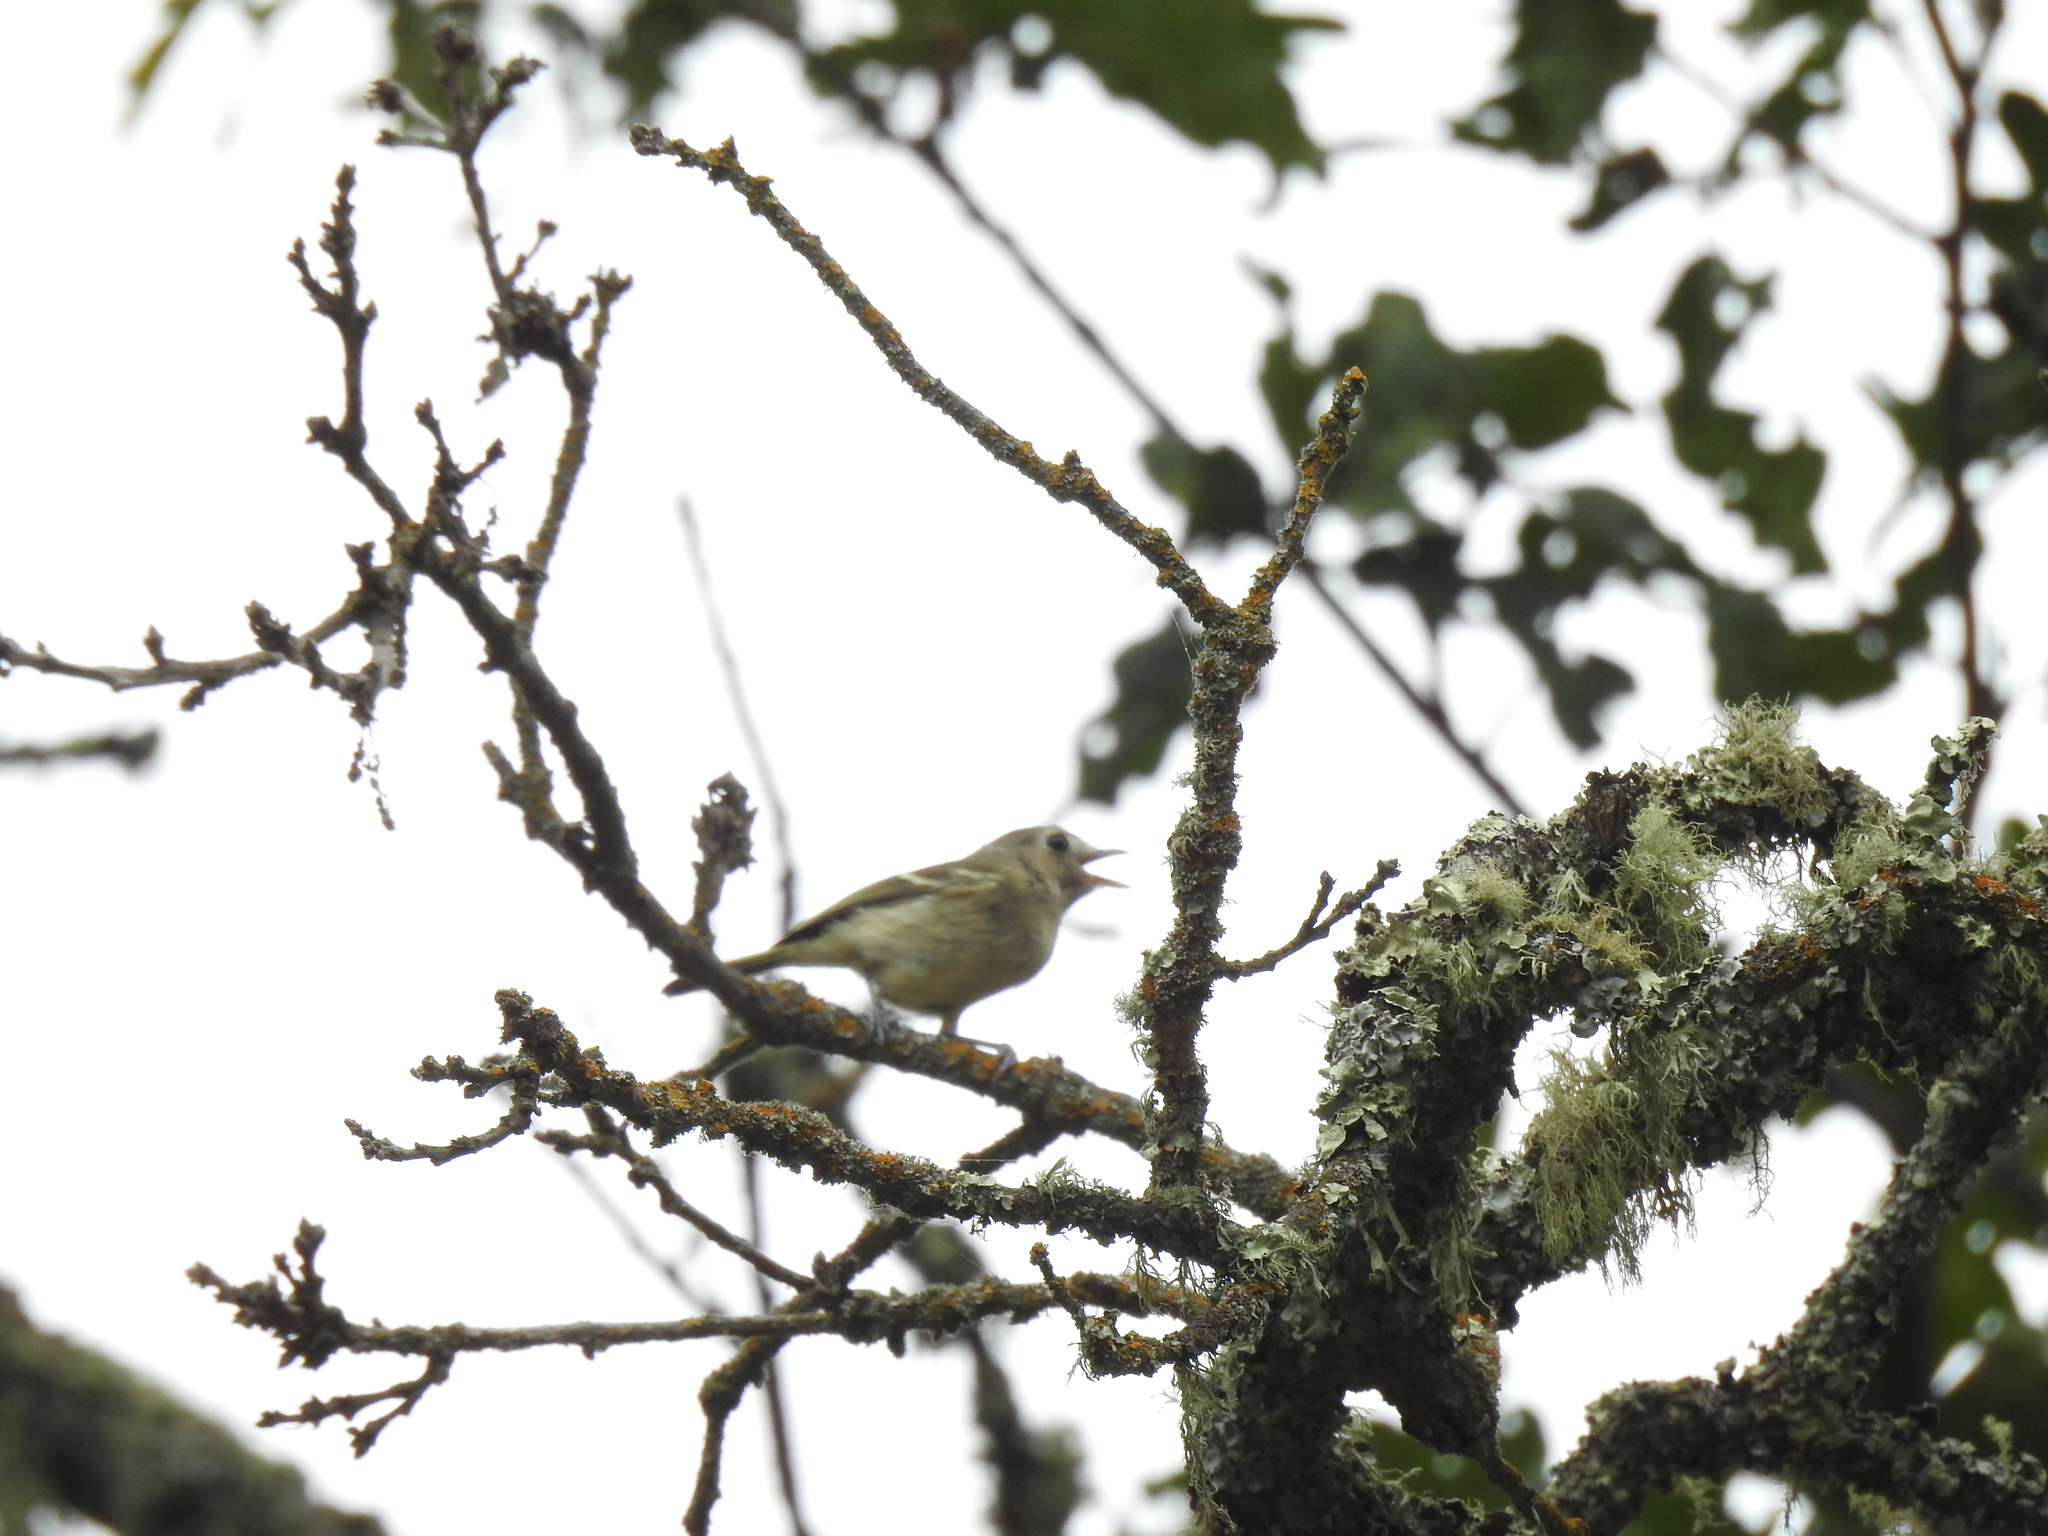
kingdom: Animalia
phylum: Chordata
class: Aves
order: Passeriformes
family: Vireonidae
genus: Vireo
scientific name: Vireo huttoni
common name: Hutton's vireo
